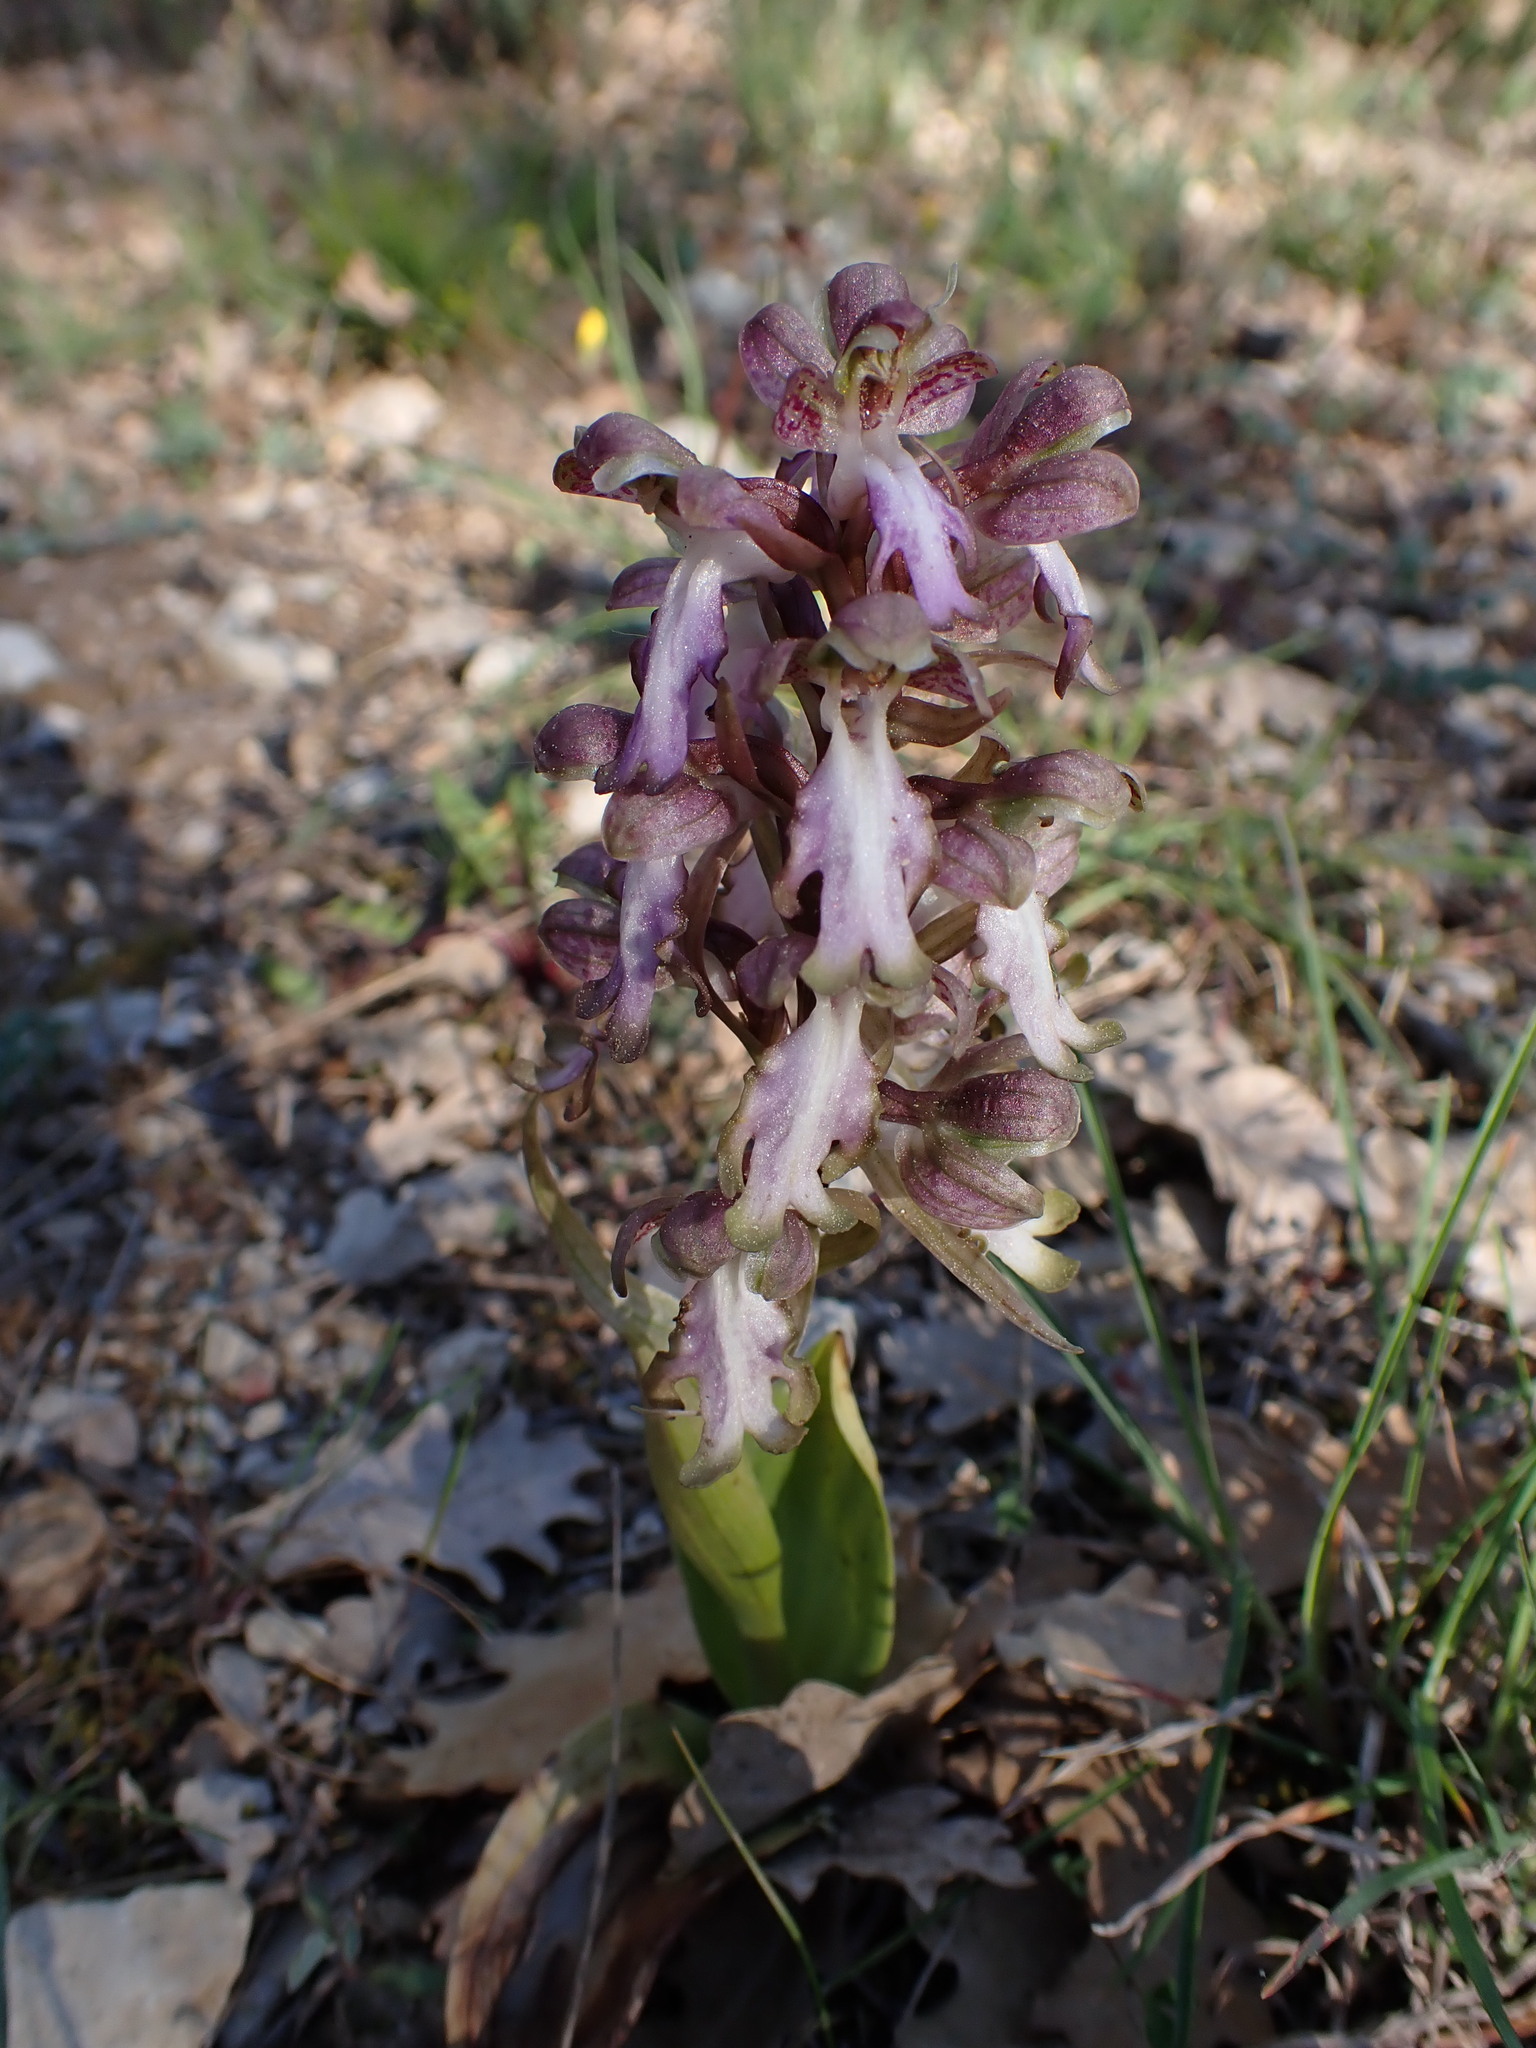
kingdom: Plantae
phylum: Tracheophyta
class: Liliopsida
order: Asparagales
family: Orchidaceae
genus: Himantoglossum
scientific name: Himantoglossum robertianum
